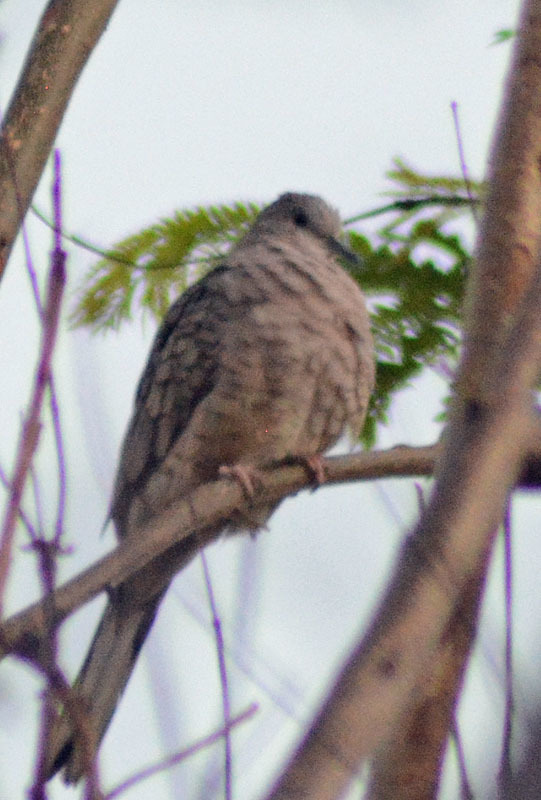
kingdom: Animalia
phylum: Chordata
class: Aves
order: Columbiformes
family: Columbidae
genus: Columbina
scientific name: Columbina inca
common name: Inca dove
